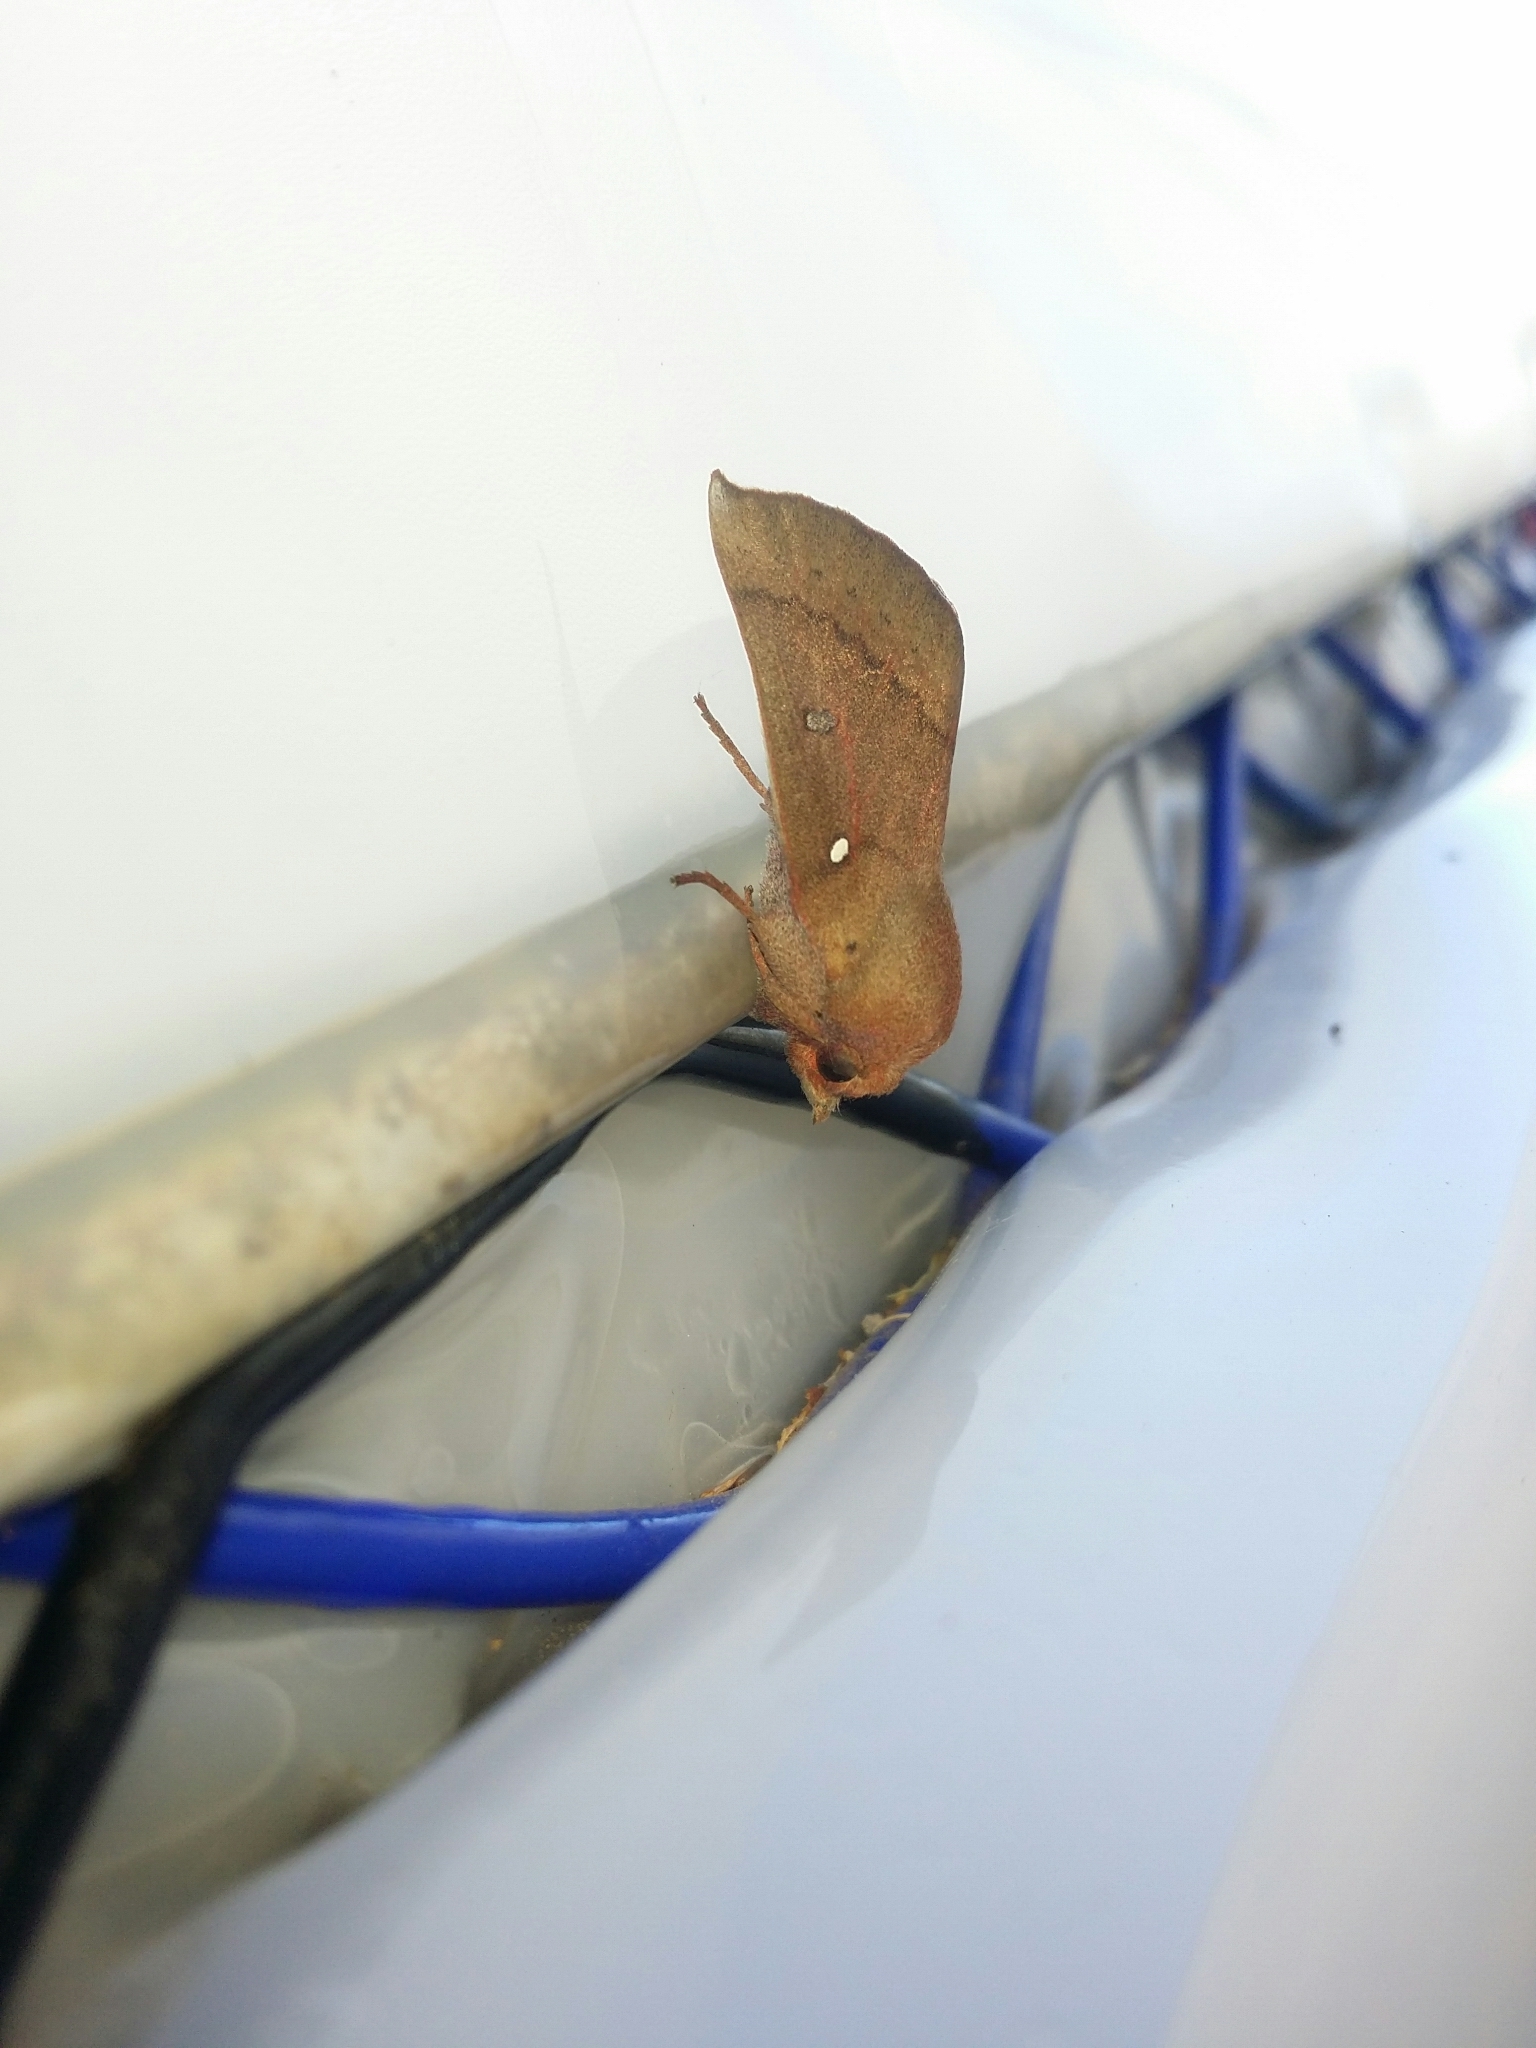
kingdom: Animalia
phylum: Arthropoda
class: Insecta
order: Lepidoptera
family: Drepanidae
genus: Hypsidia
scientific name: Hypsidia niphosema
